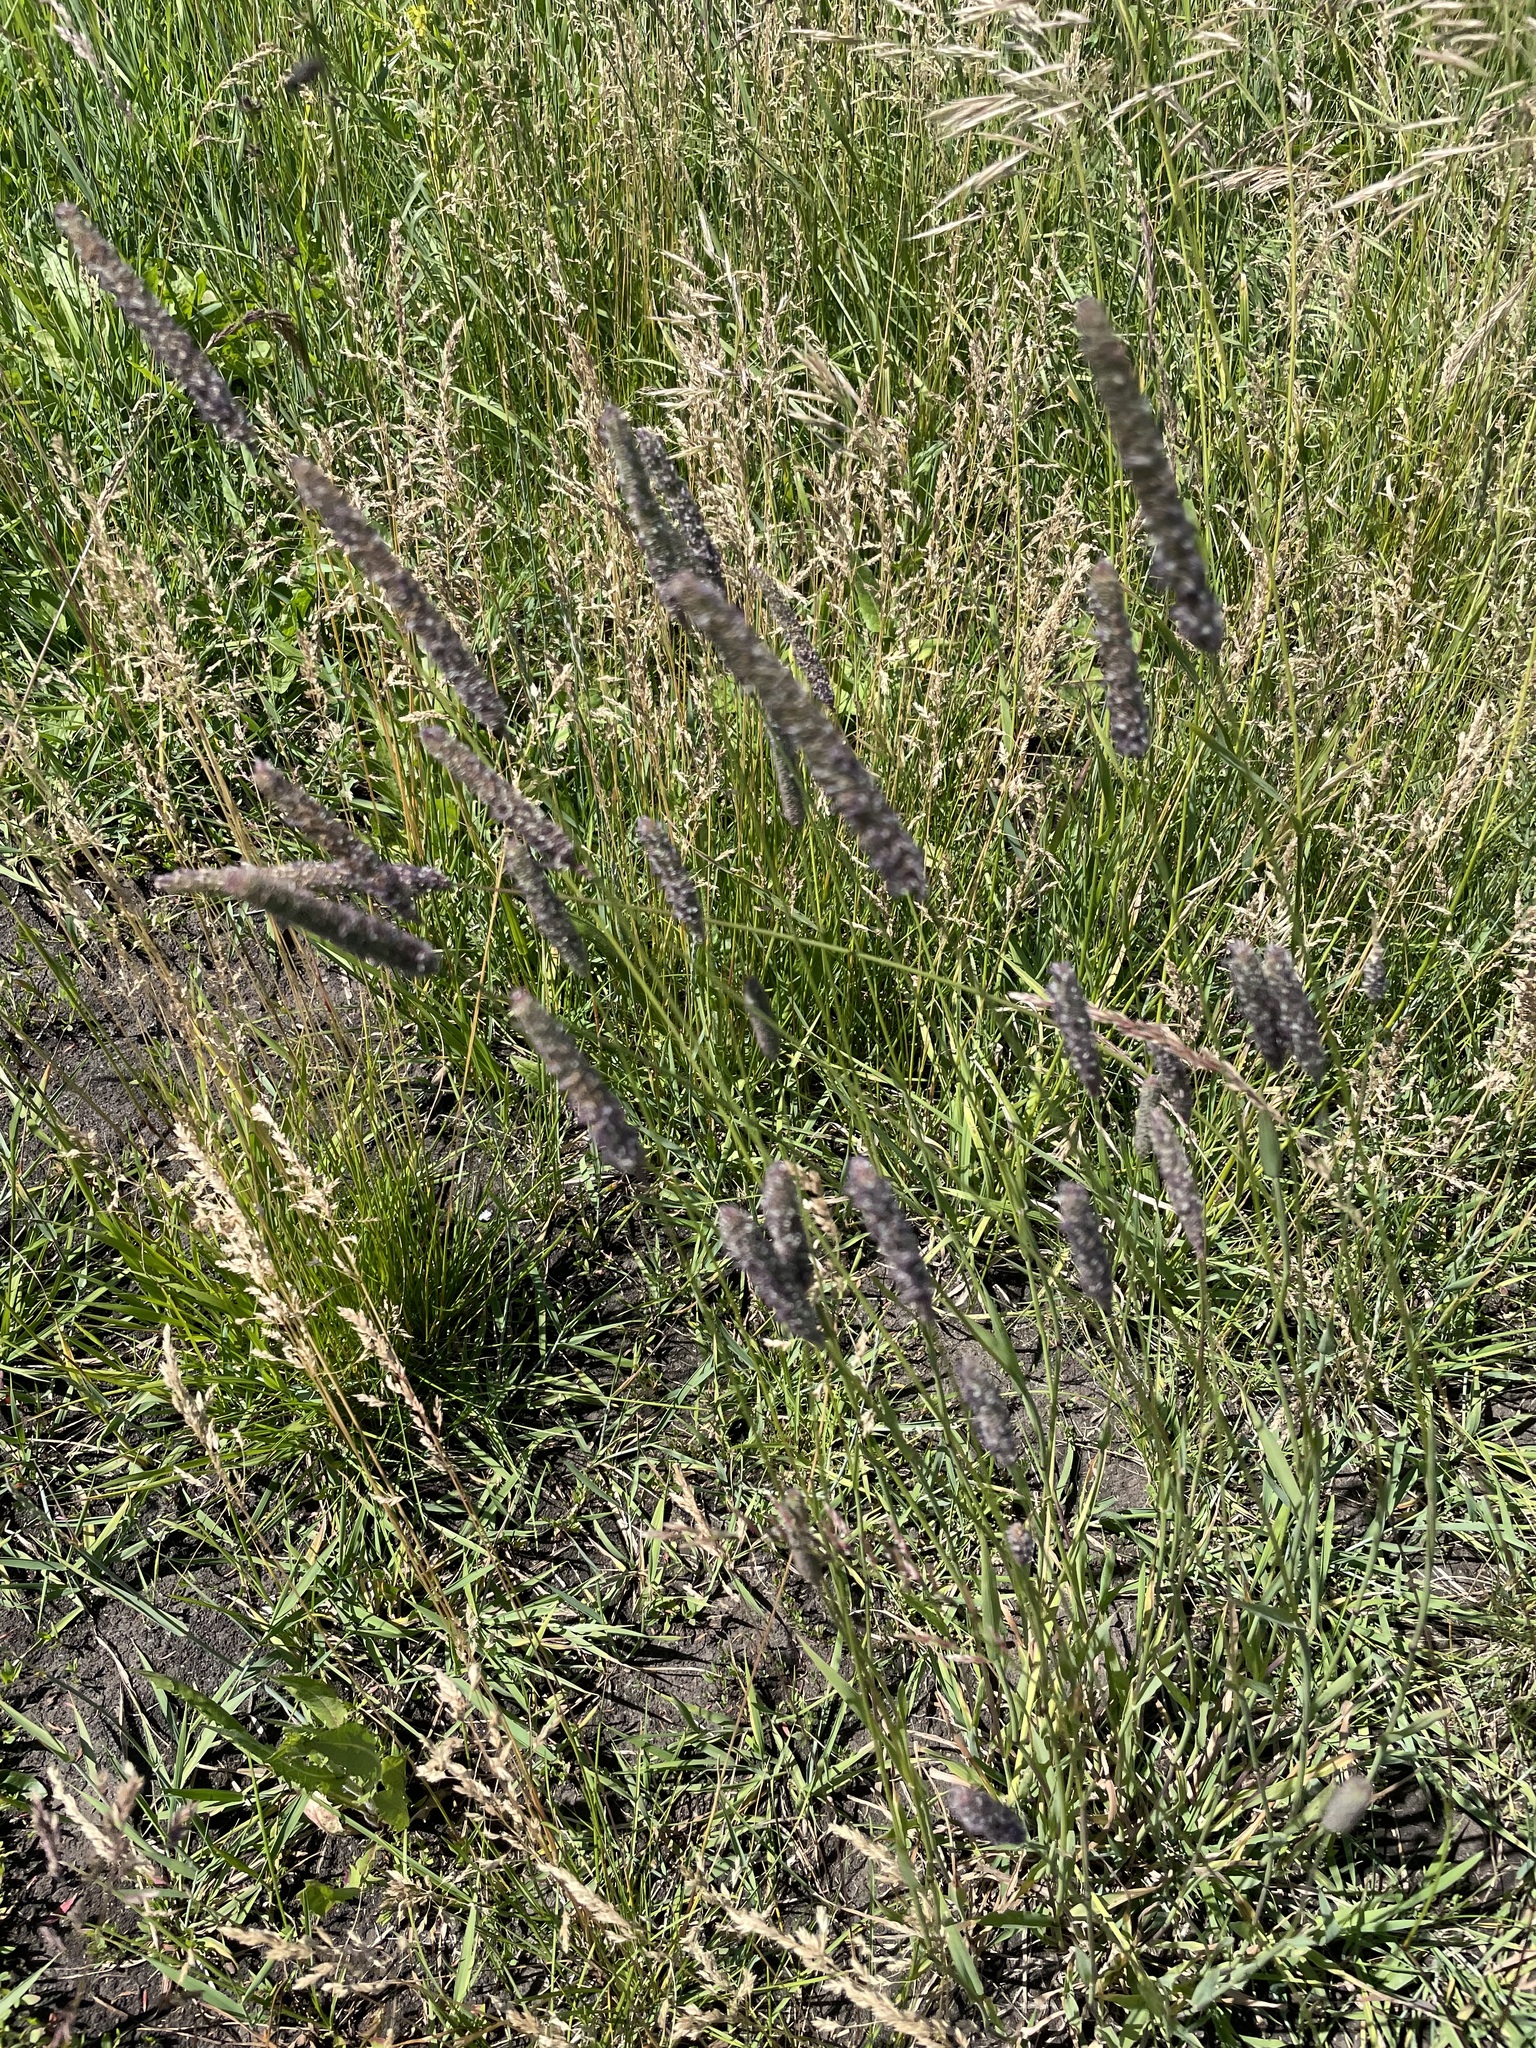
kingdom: Plantae
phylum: Tracheophyta
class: Liliopsida
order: Poales
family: Poaceae
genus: Phleum
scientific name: Phleum pratense
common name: Timothy grass
